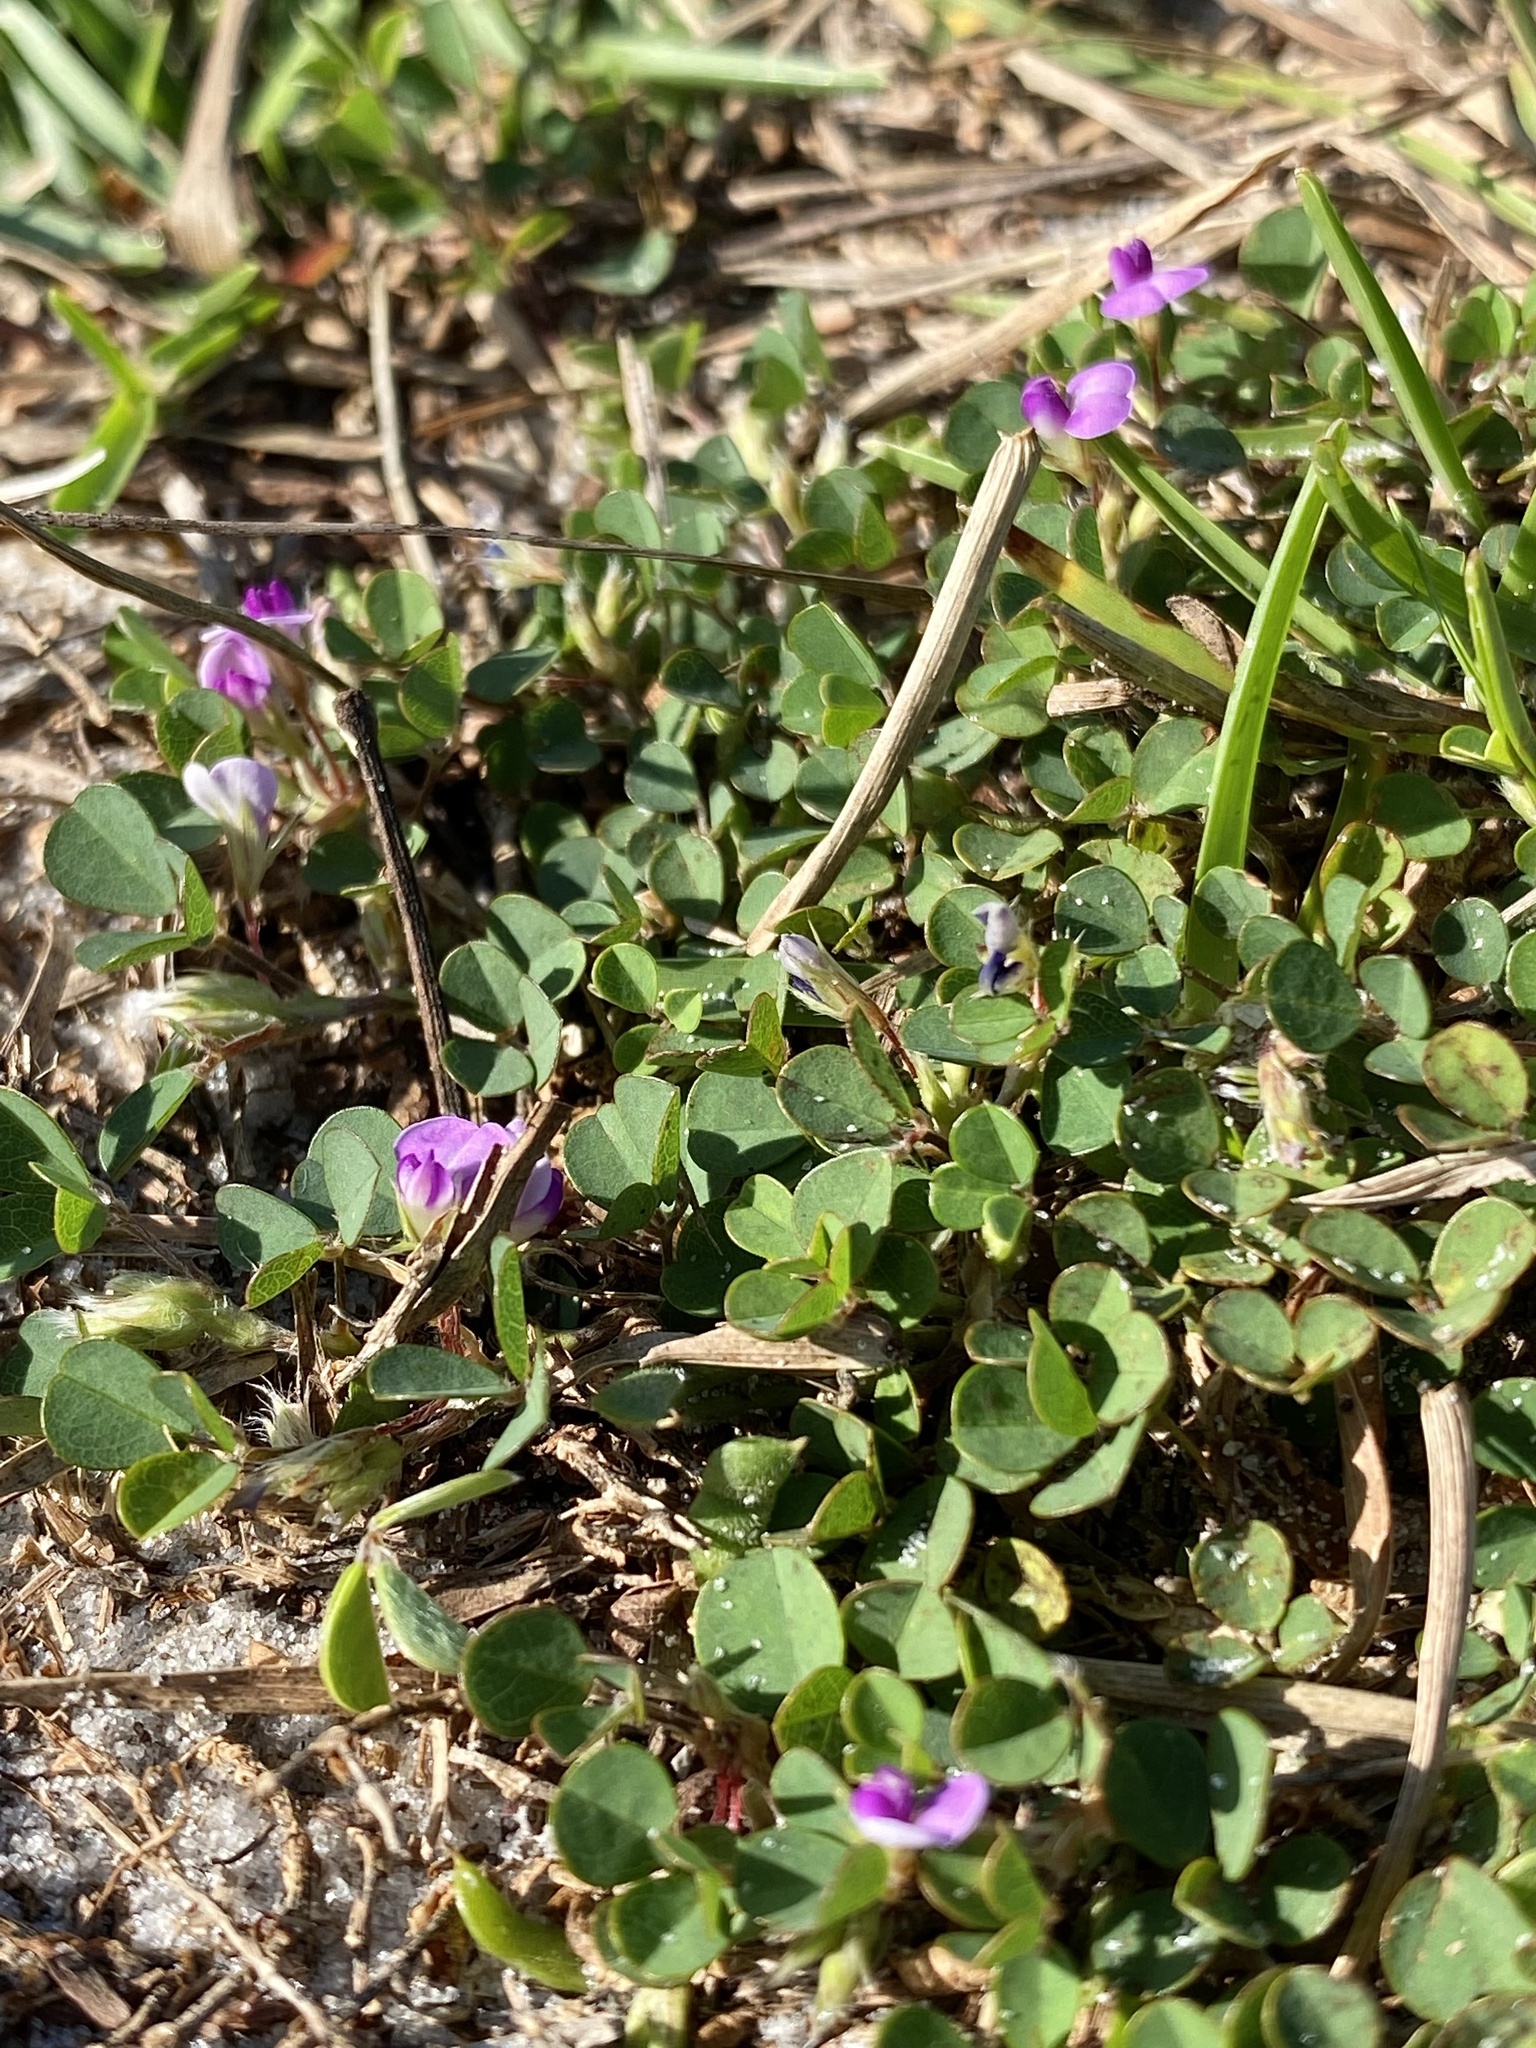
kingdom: Plantae
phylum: Tracheophyta
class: Magnoliopsida
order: Fabales
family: Fabaceae
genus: Grona
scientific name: Grona triflora
